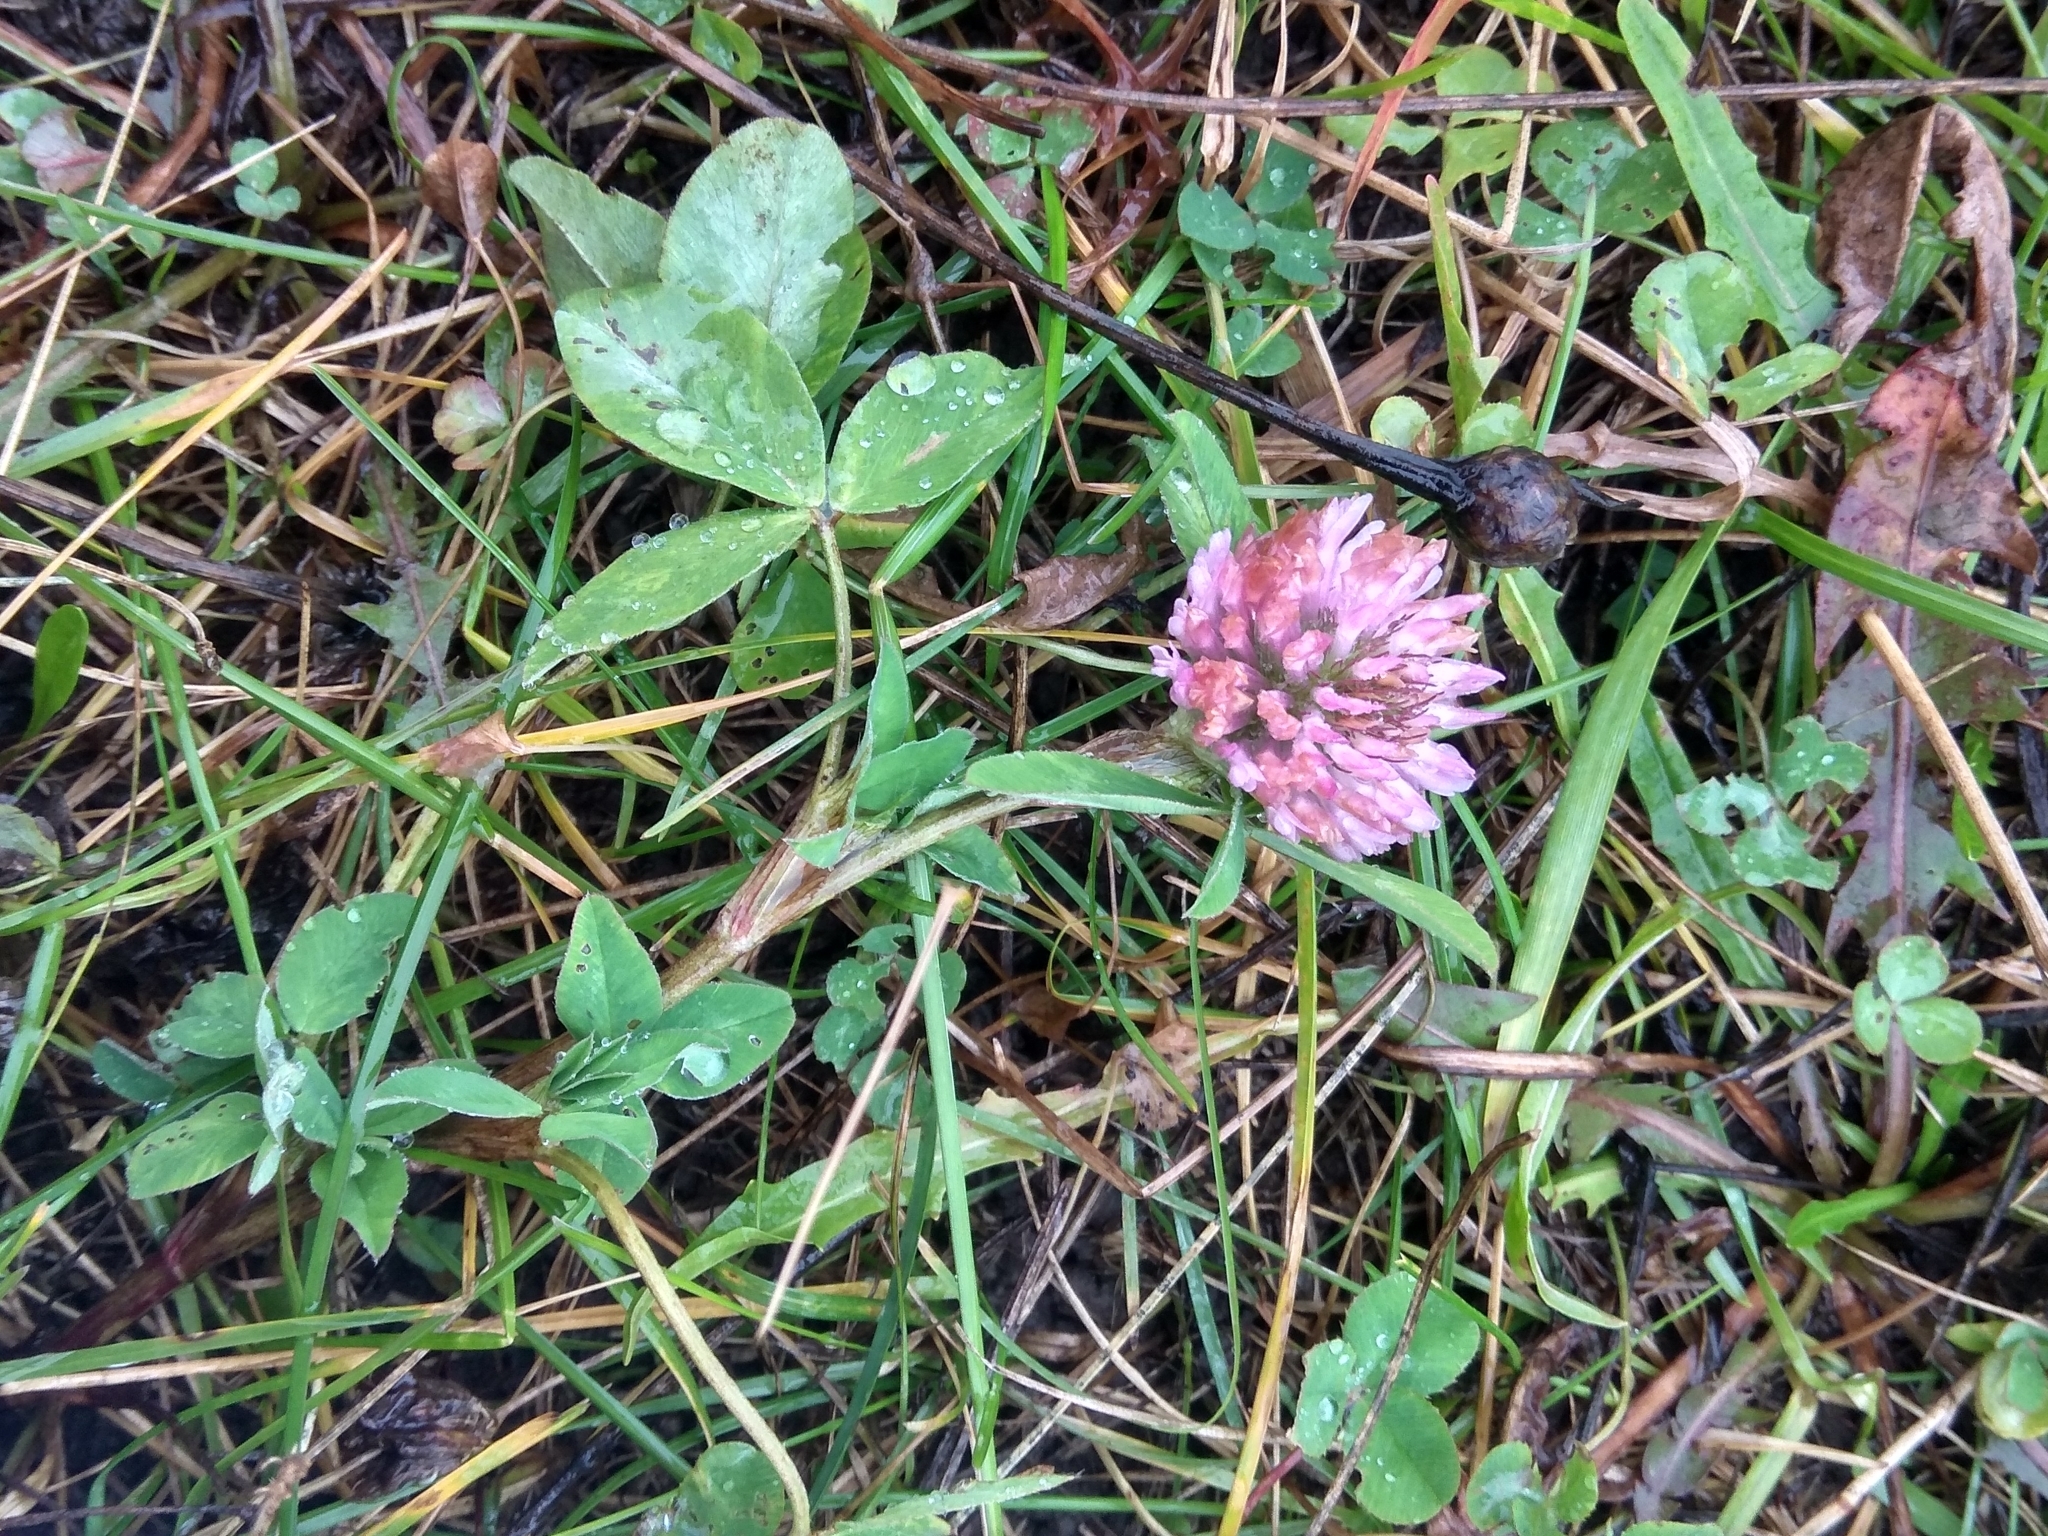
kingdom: Plantae
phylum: Tracheophyta
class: Magnoliopsida
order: Fabales
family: Fabaceae
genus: Trifolium
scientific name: Trifolium pratense
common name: Red clover
